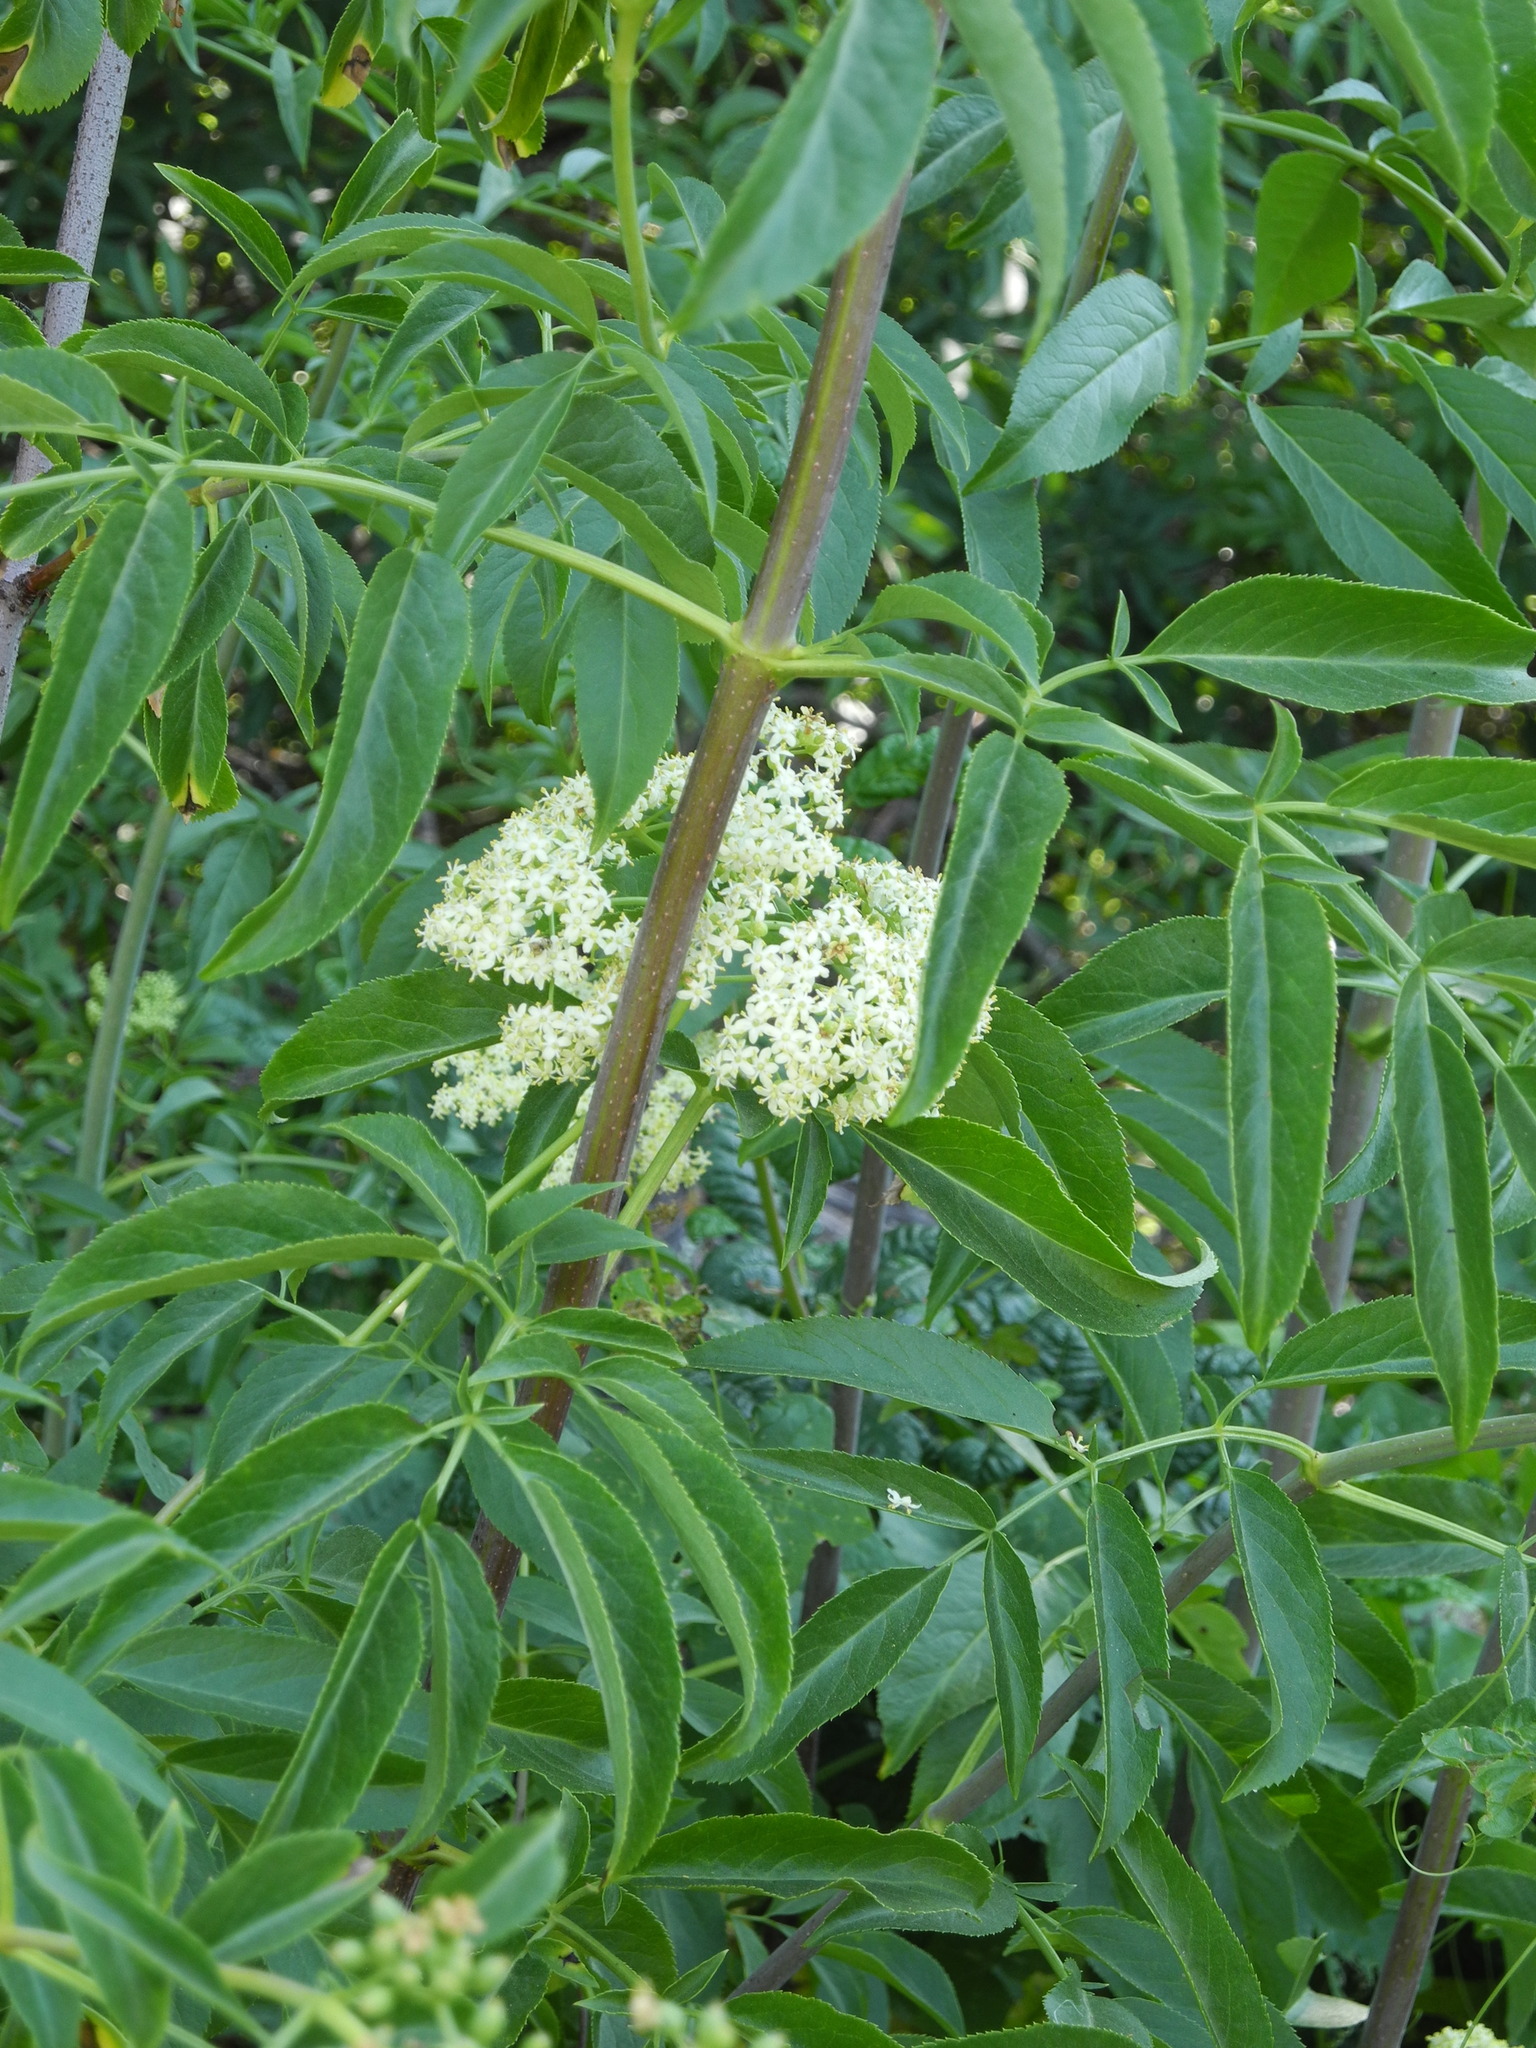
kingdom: Plantae
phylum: Tracheophyta
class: Magnoliopsida
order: Dipsacales
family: Viburnaceae
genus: Sambucus
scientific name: Sambucus cerulea
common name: Blue elder
